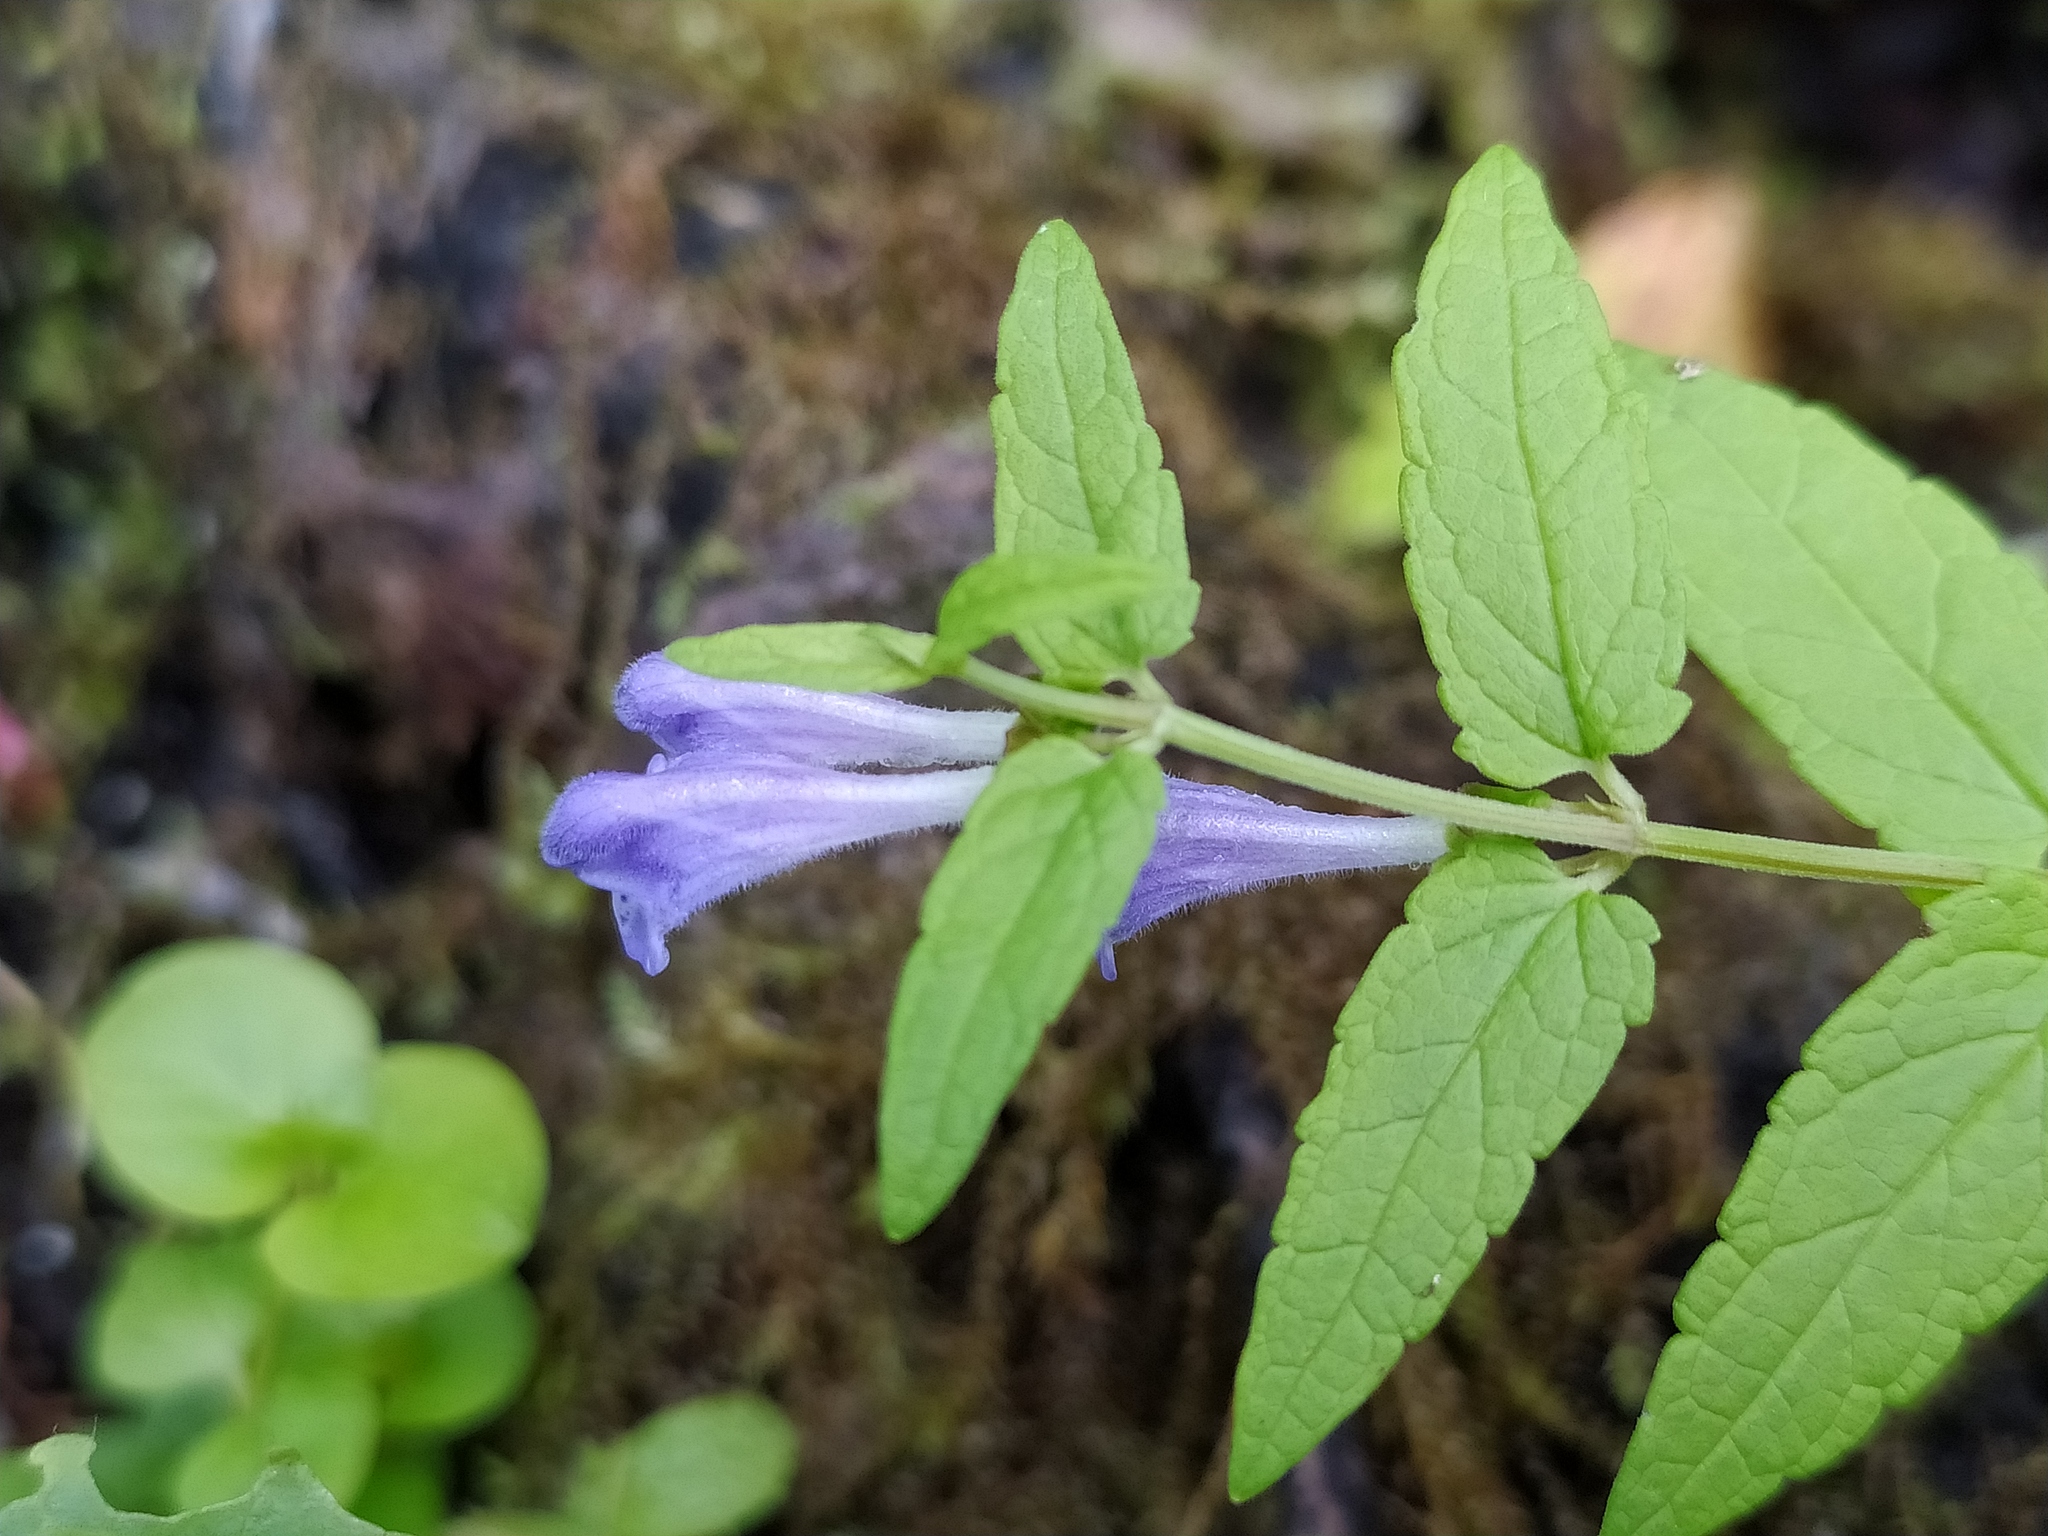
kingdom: Plantae
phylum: Tracheophyta
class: Magnoliopsida
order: Lamiales
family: Lamiaceae
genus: Scutellaria
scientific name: Scutellaria galericulata
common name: Skullcap
